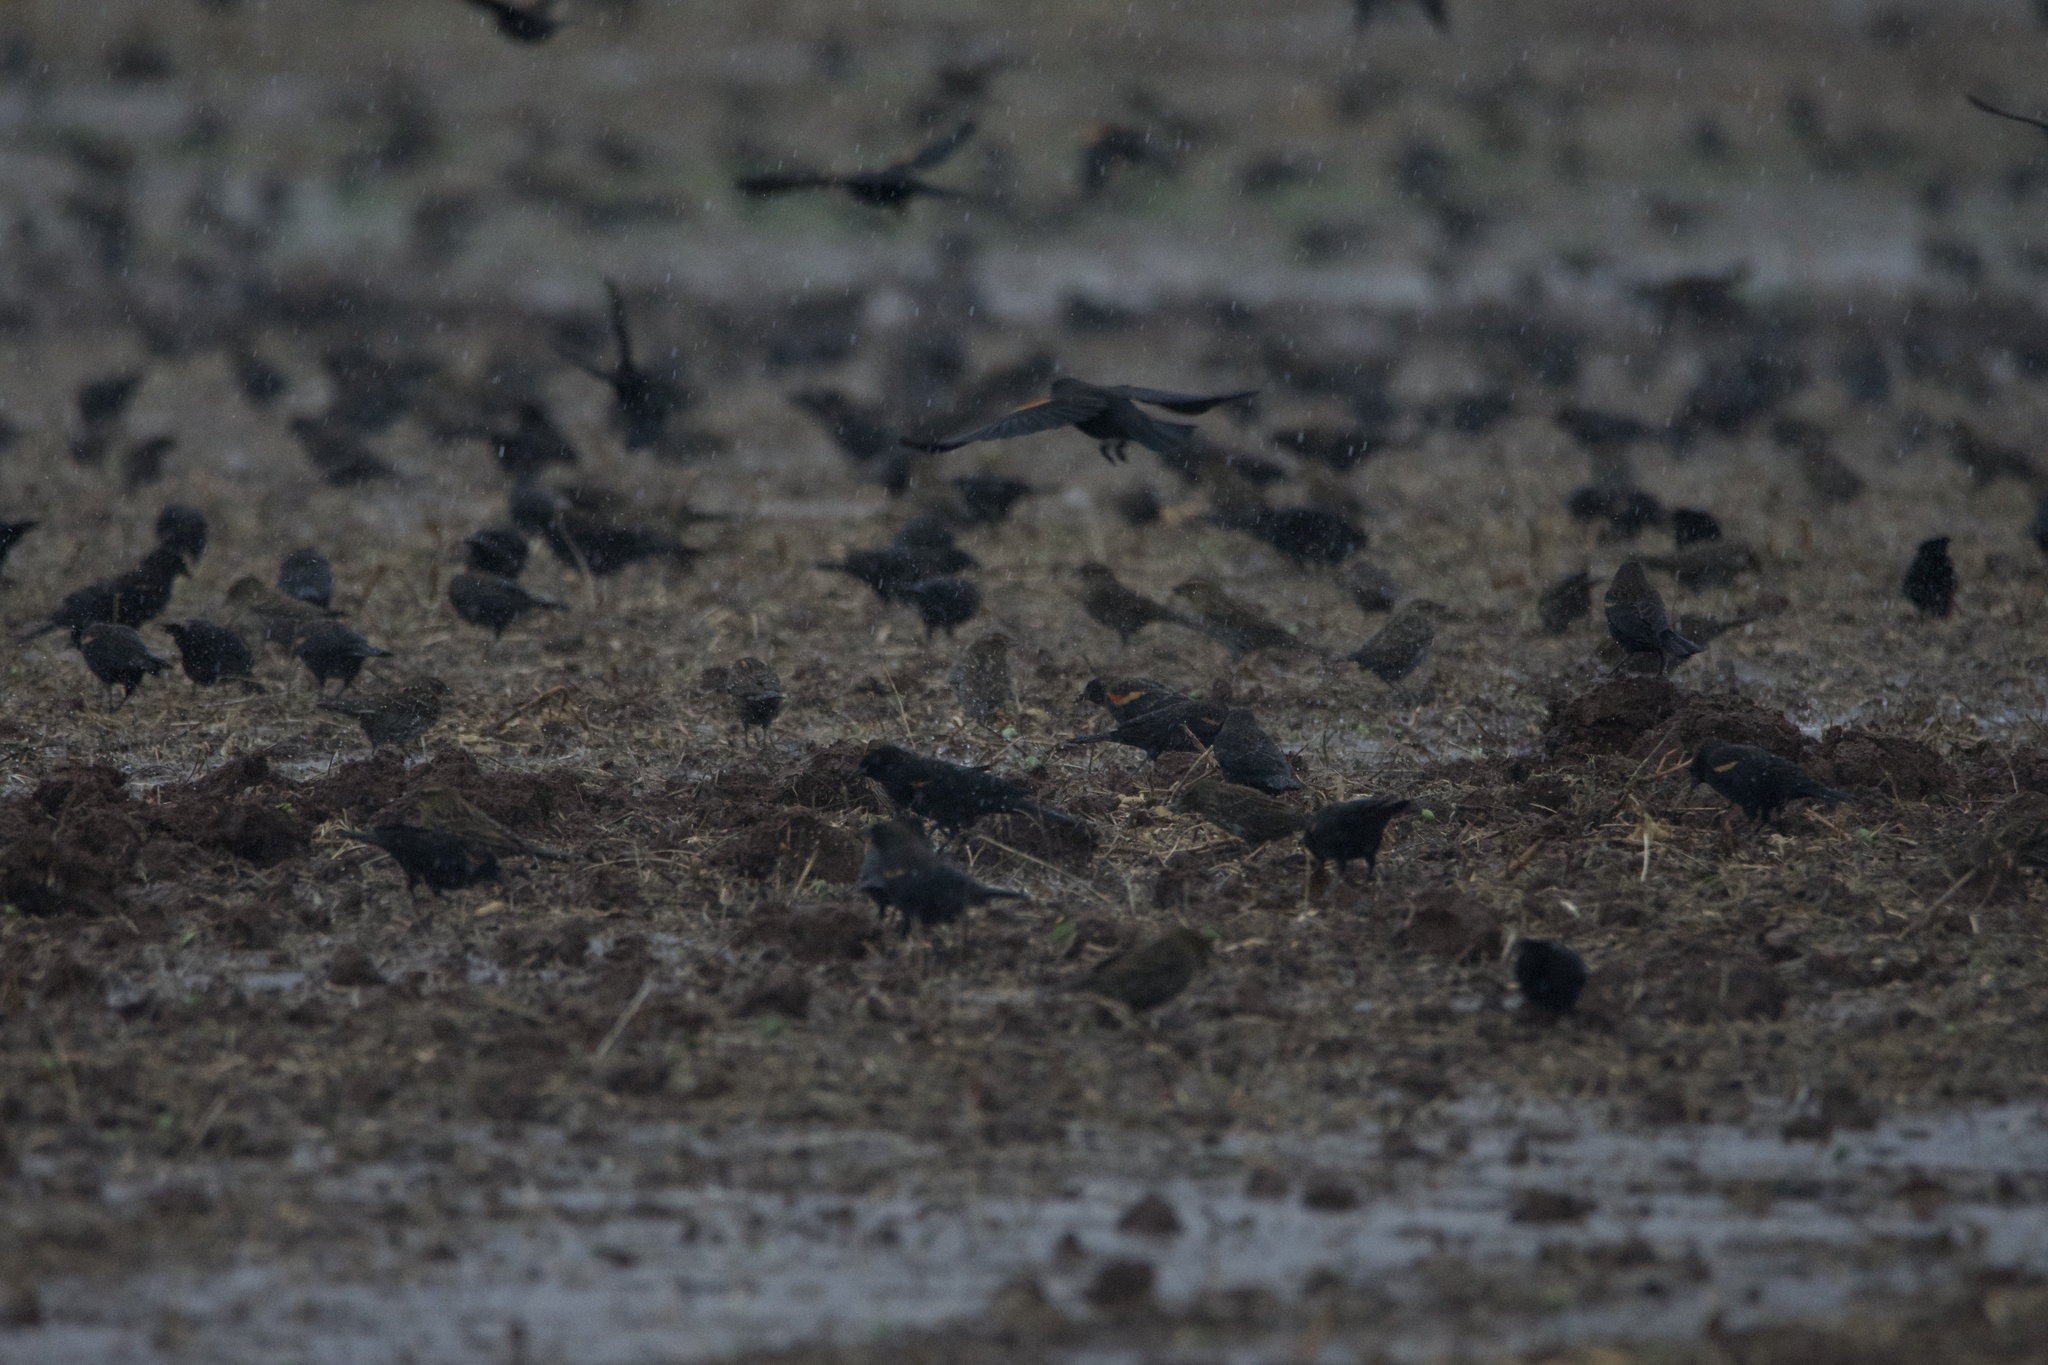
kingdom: Animalia
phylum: Chordata
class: Aves
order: Passeriformes
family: Icteridae
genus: Agelaius
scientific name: Agelaius phoeniceus
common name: Red-winged blackbird
